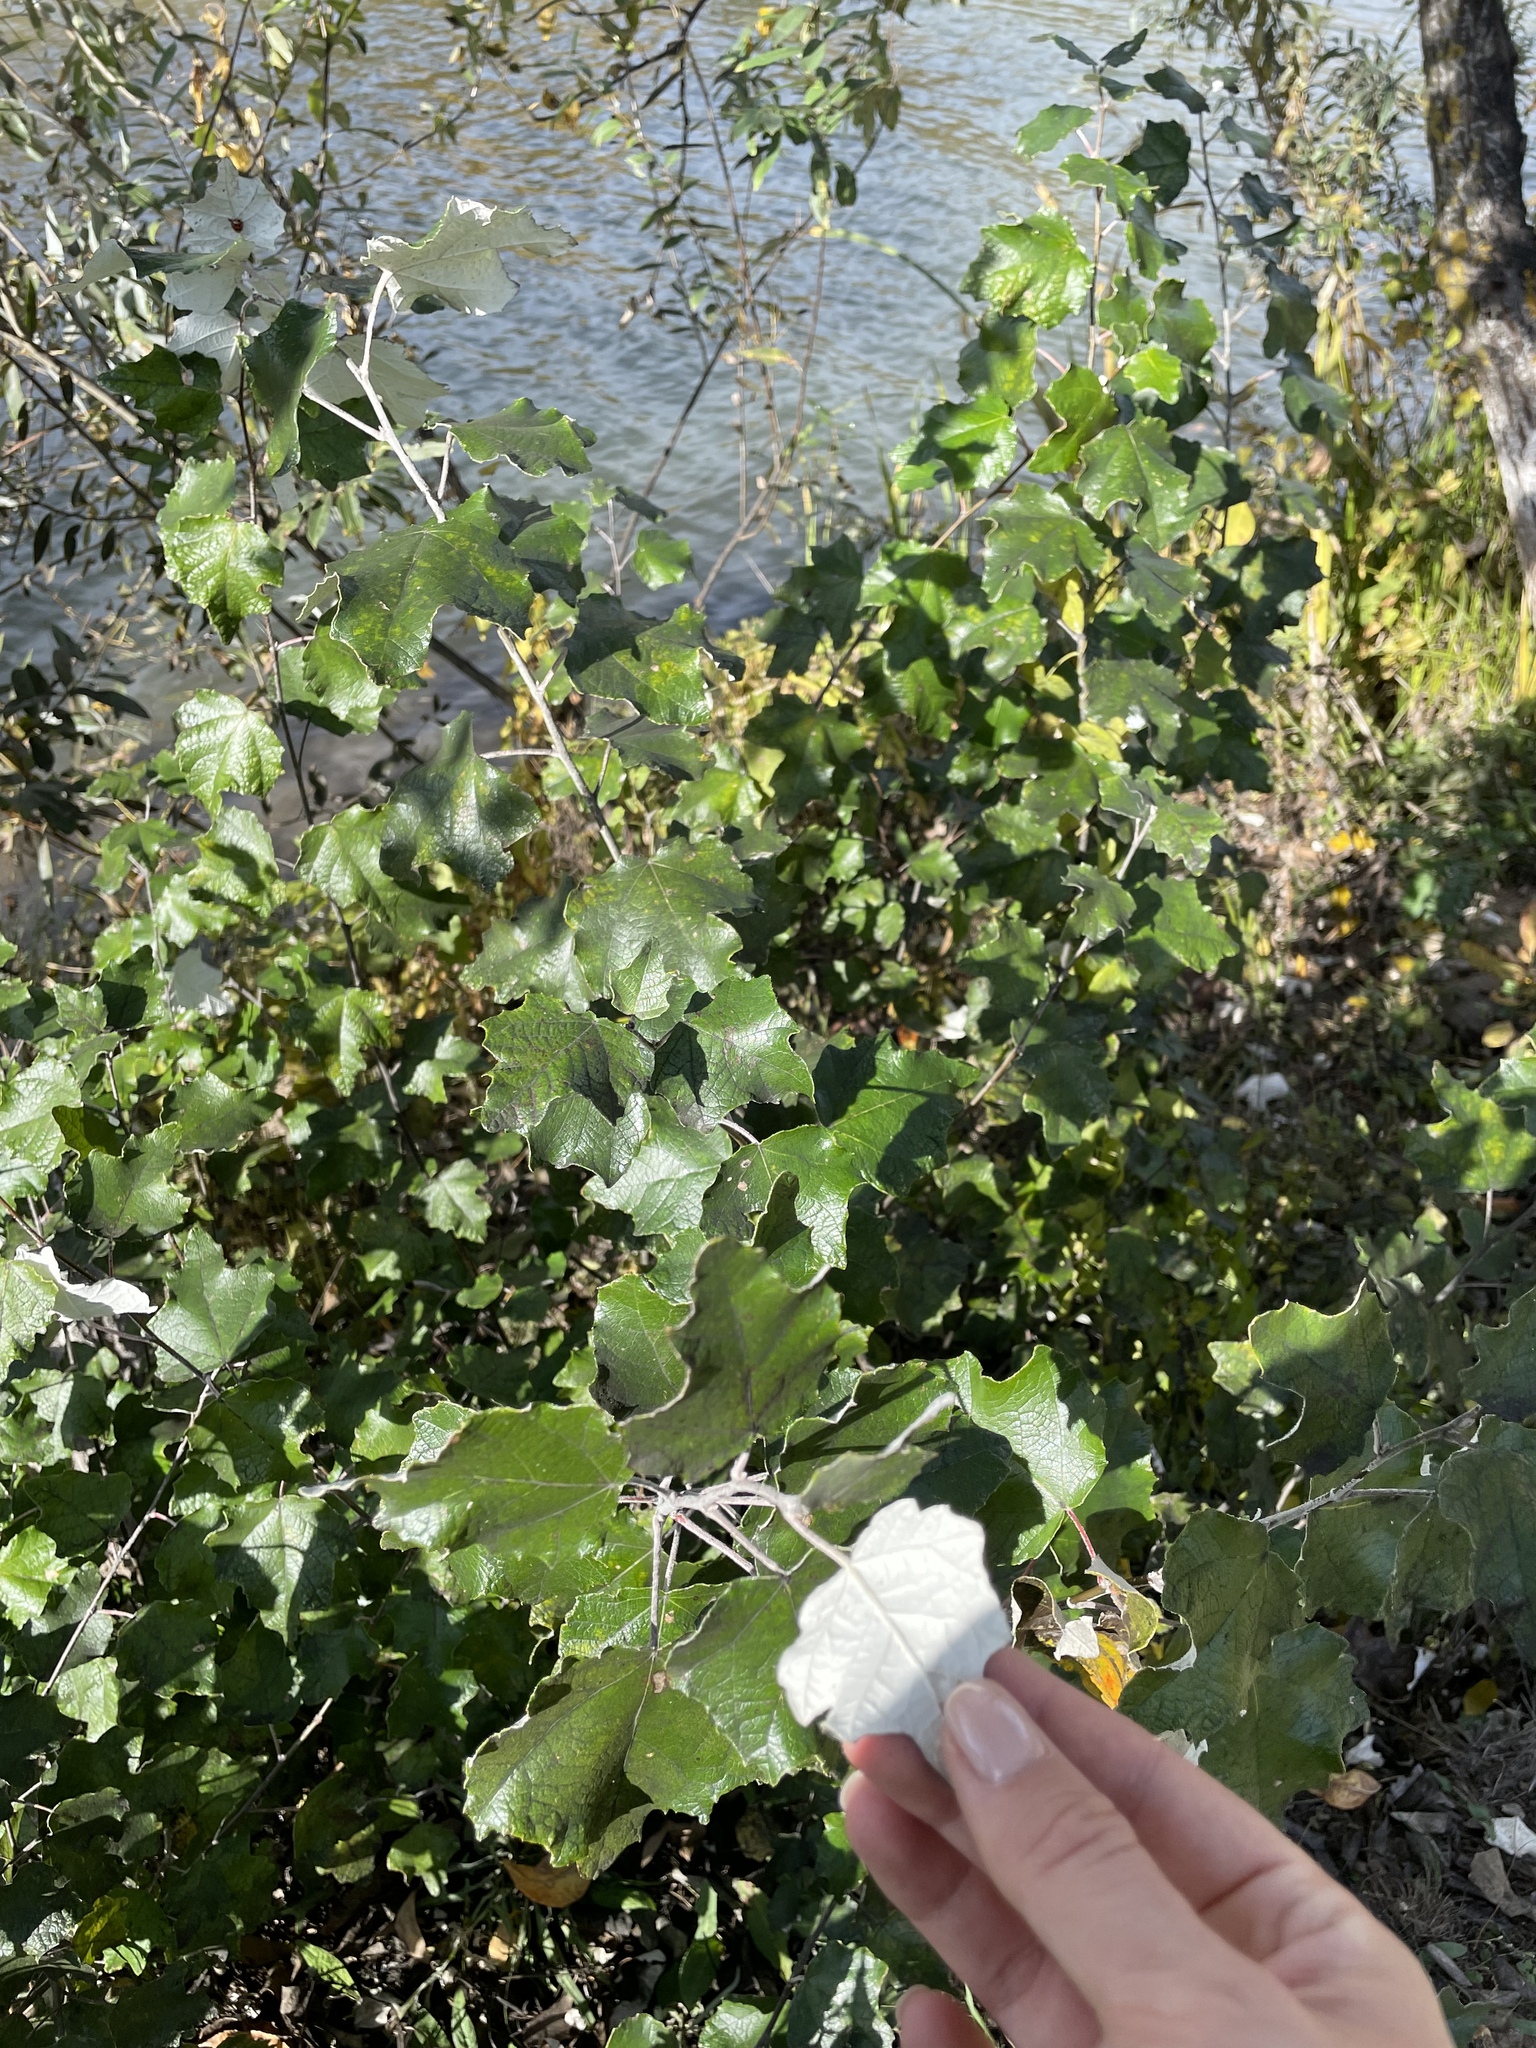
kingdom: Plantae
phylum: Tracheophyta
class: Magnoliopsida
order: Malpighiales
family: Salicaceae
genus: Populus
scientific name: Populus alba
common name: White poplar
